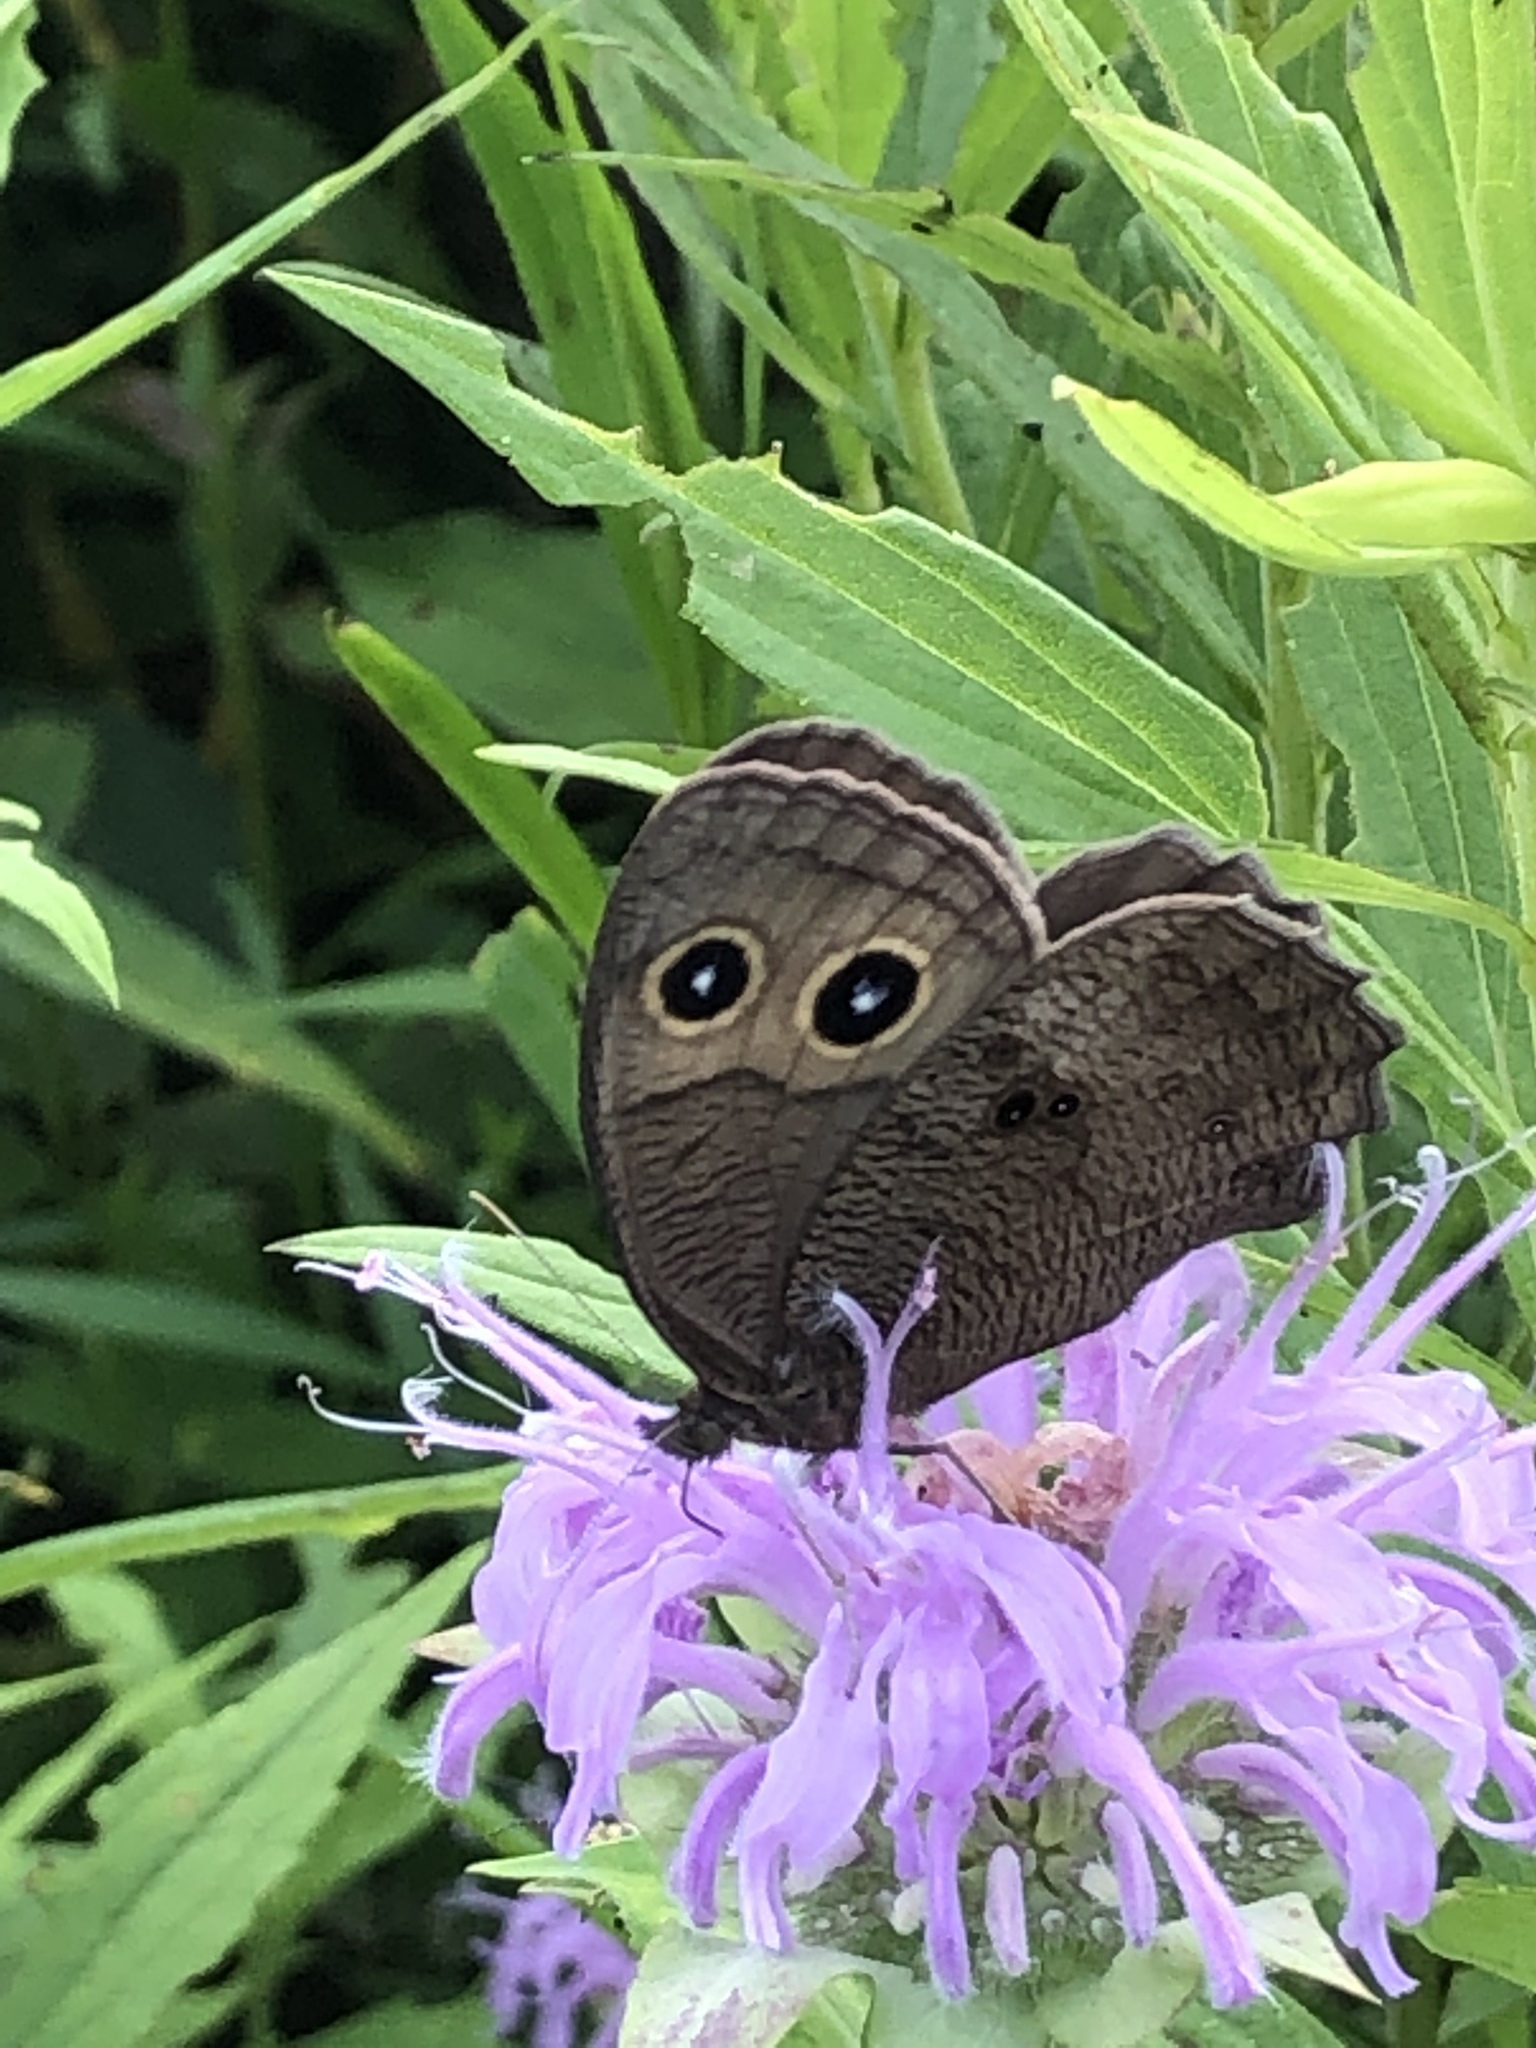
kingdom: Animalia
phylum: Arthropoda
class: Insecta
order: Lepidoptera
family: Nymphalidae
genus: Cercyonis
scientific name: Cercyonis pegala
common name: Common wood-nymph
